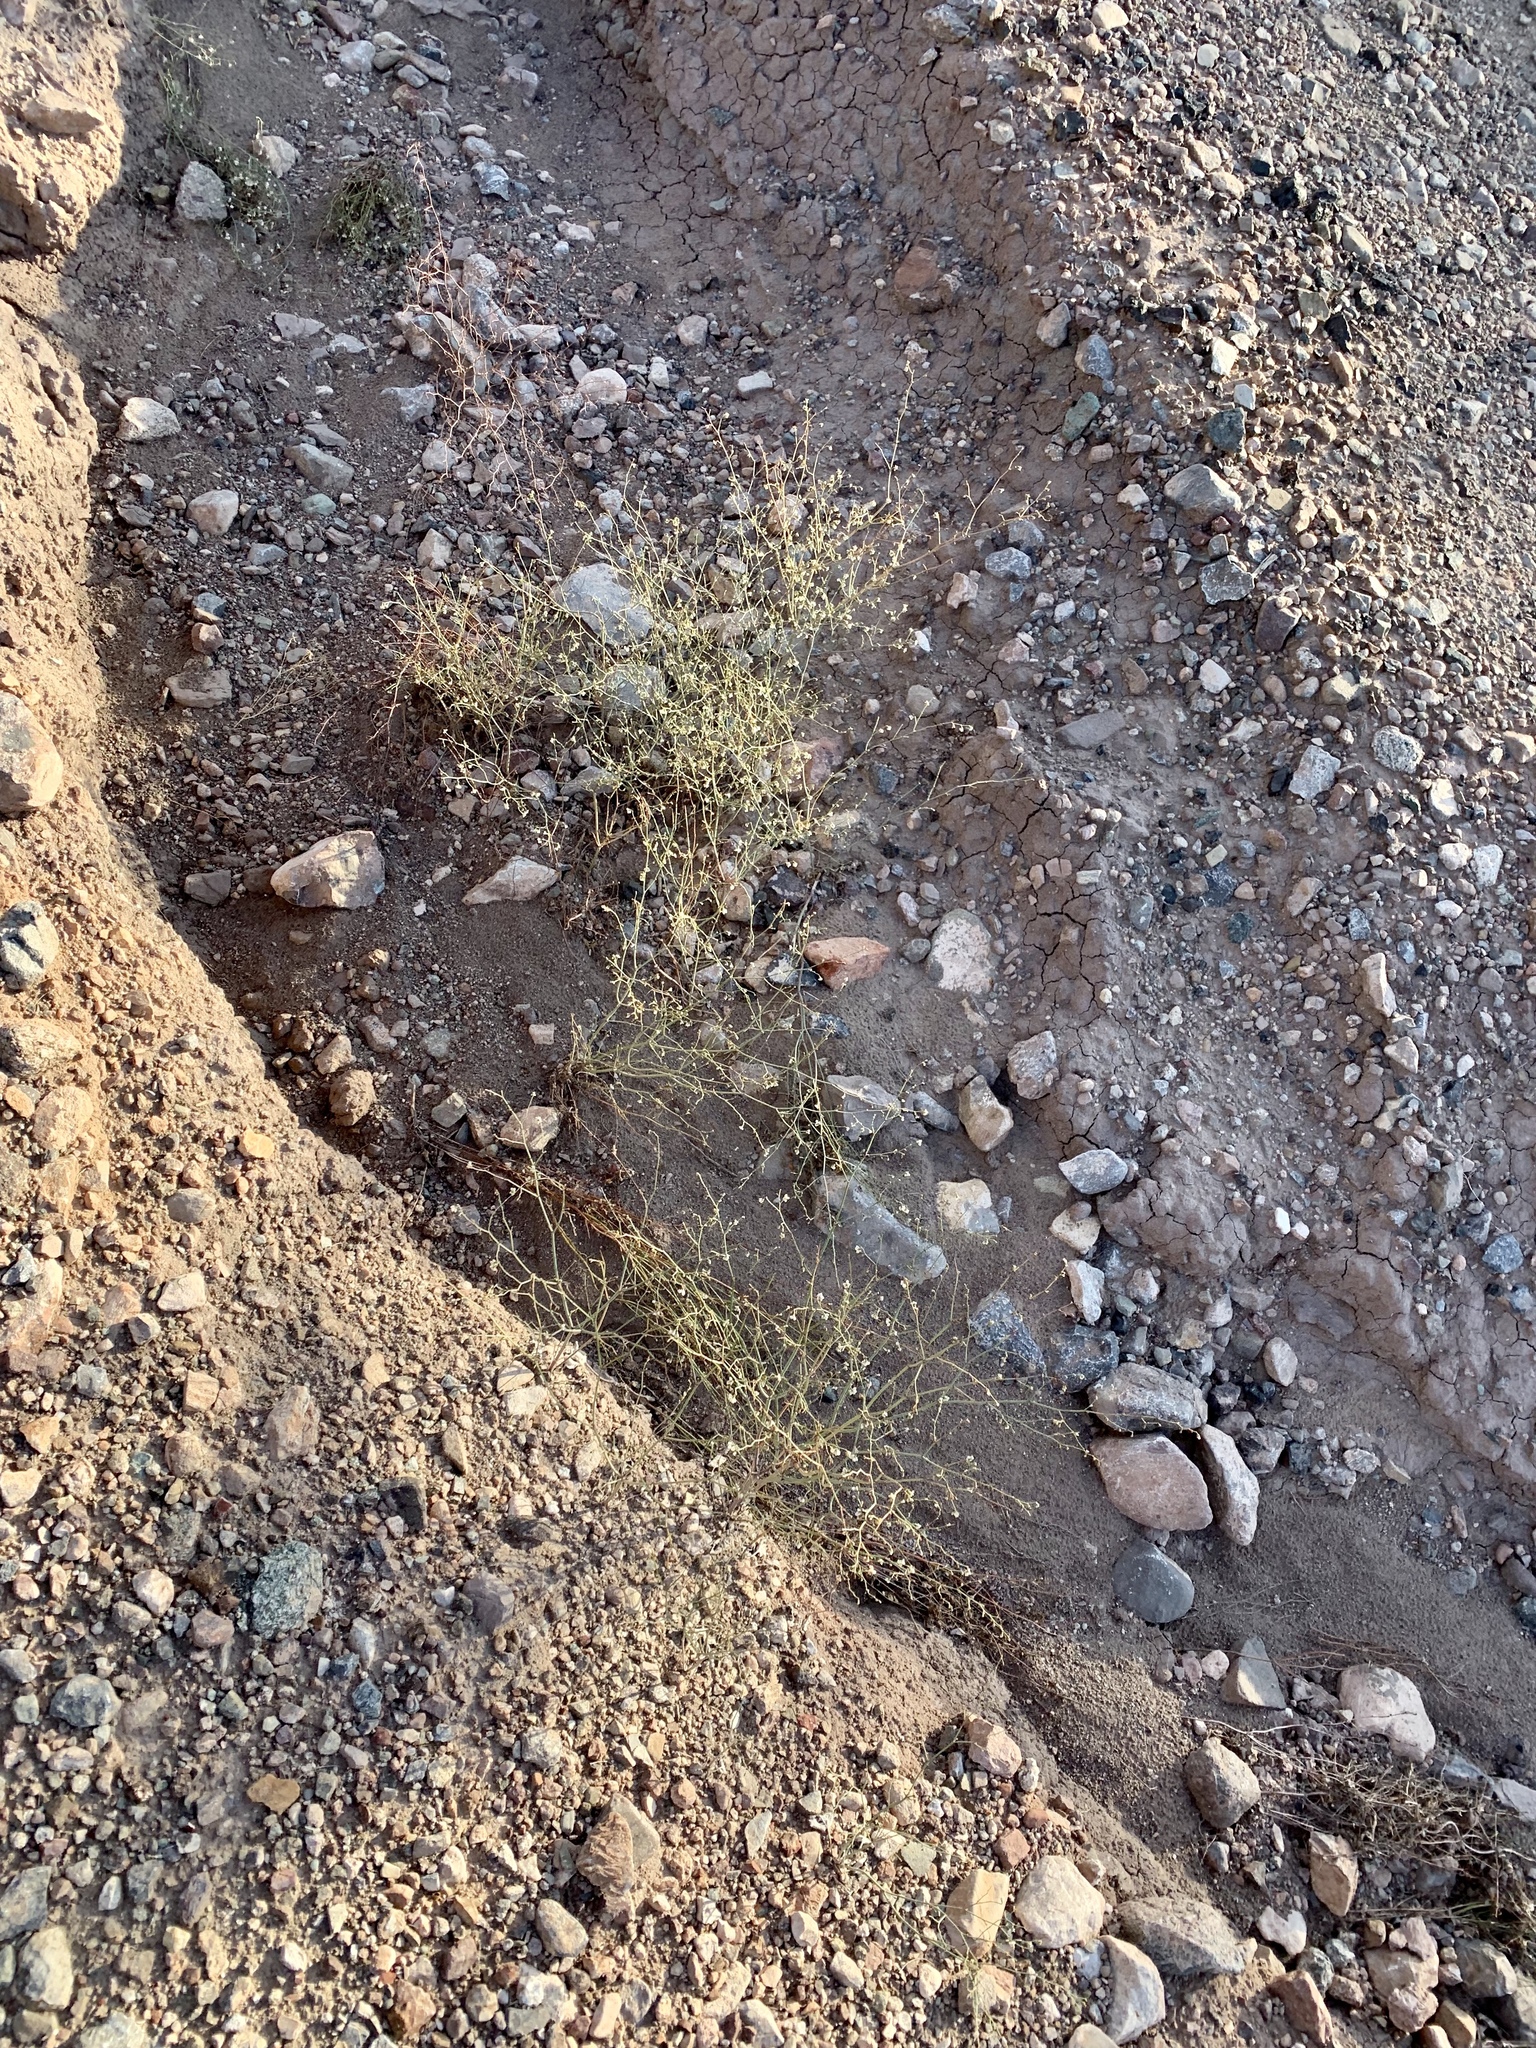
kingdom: Plantae
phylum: Tracheophyta
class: Magnoliopsida
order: Caryophyllales
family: Polygonaceae
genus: Eriogonum
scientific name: Eriogonum deflexum
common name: Skeleton-weed
